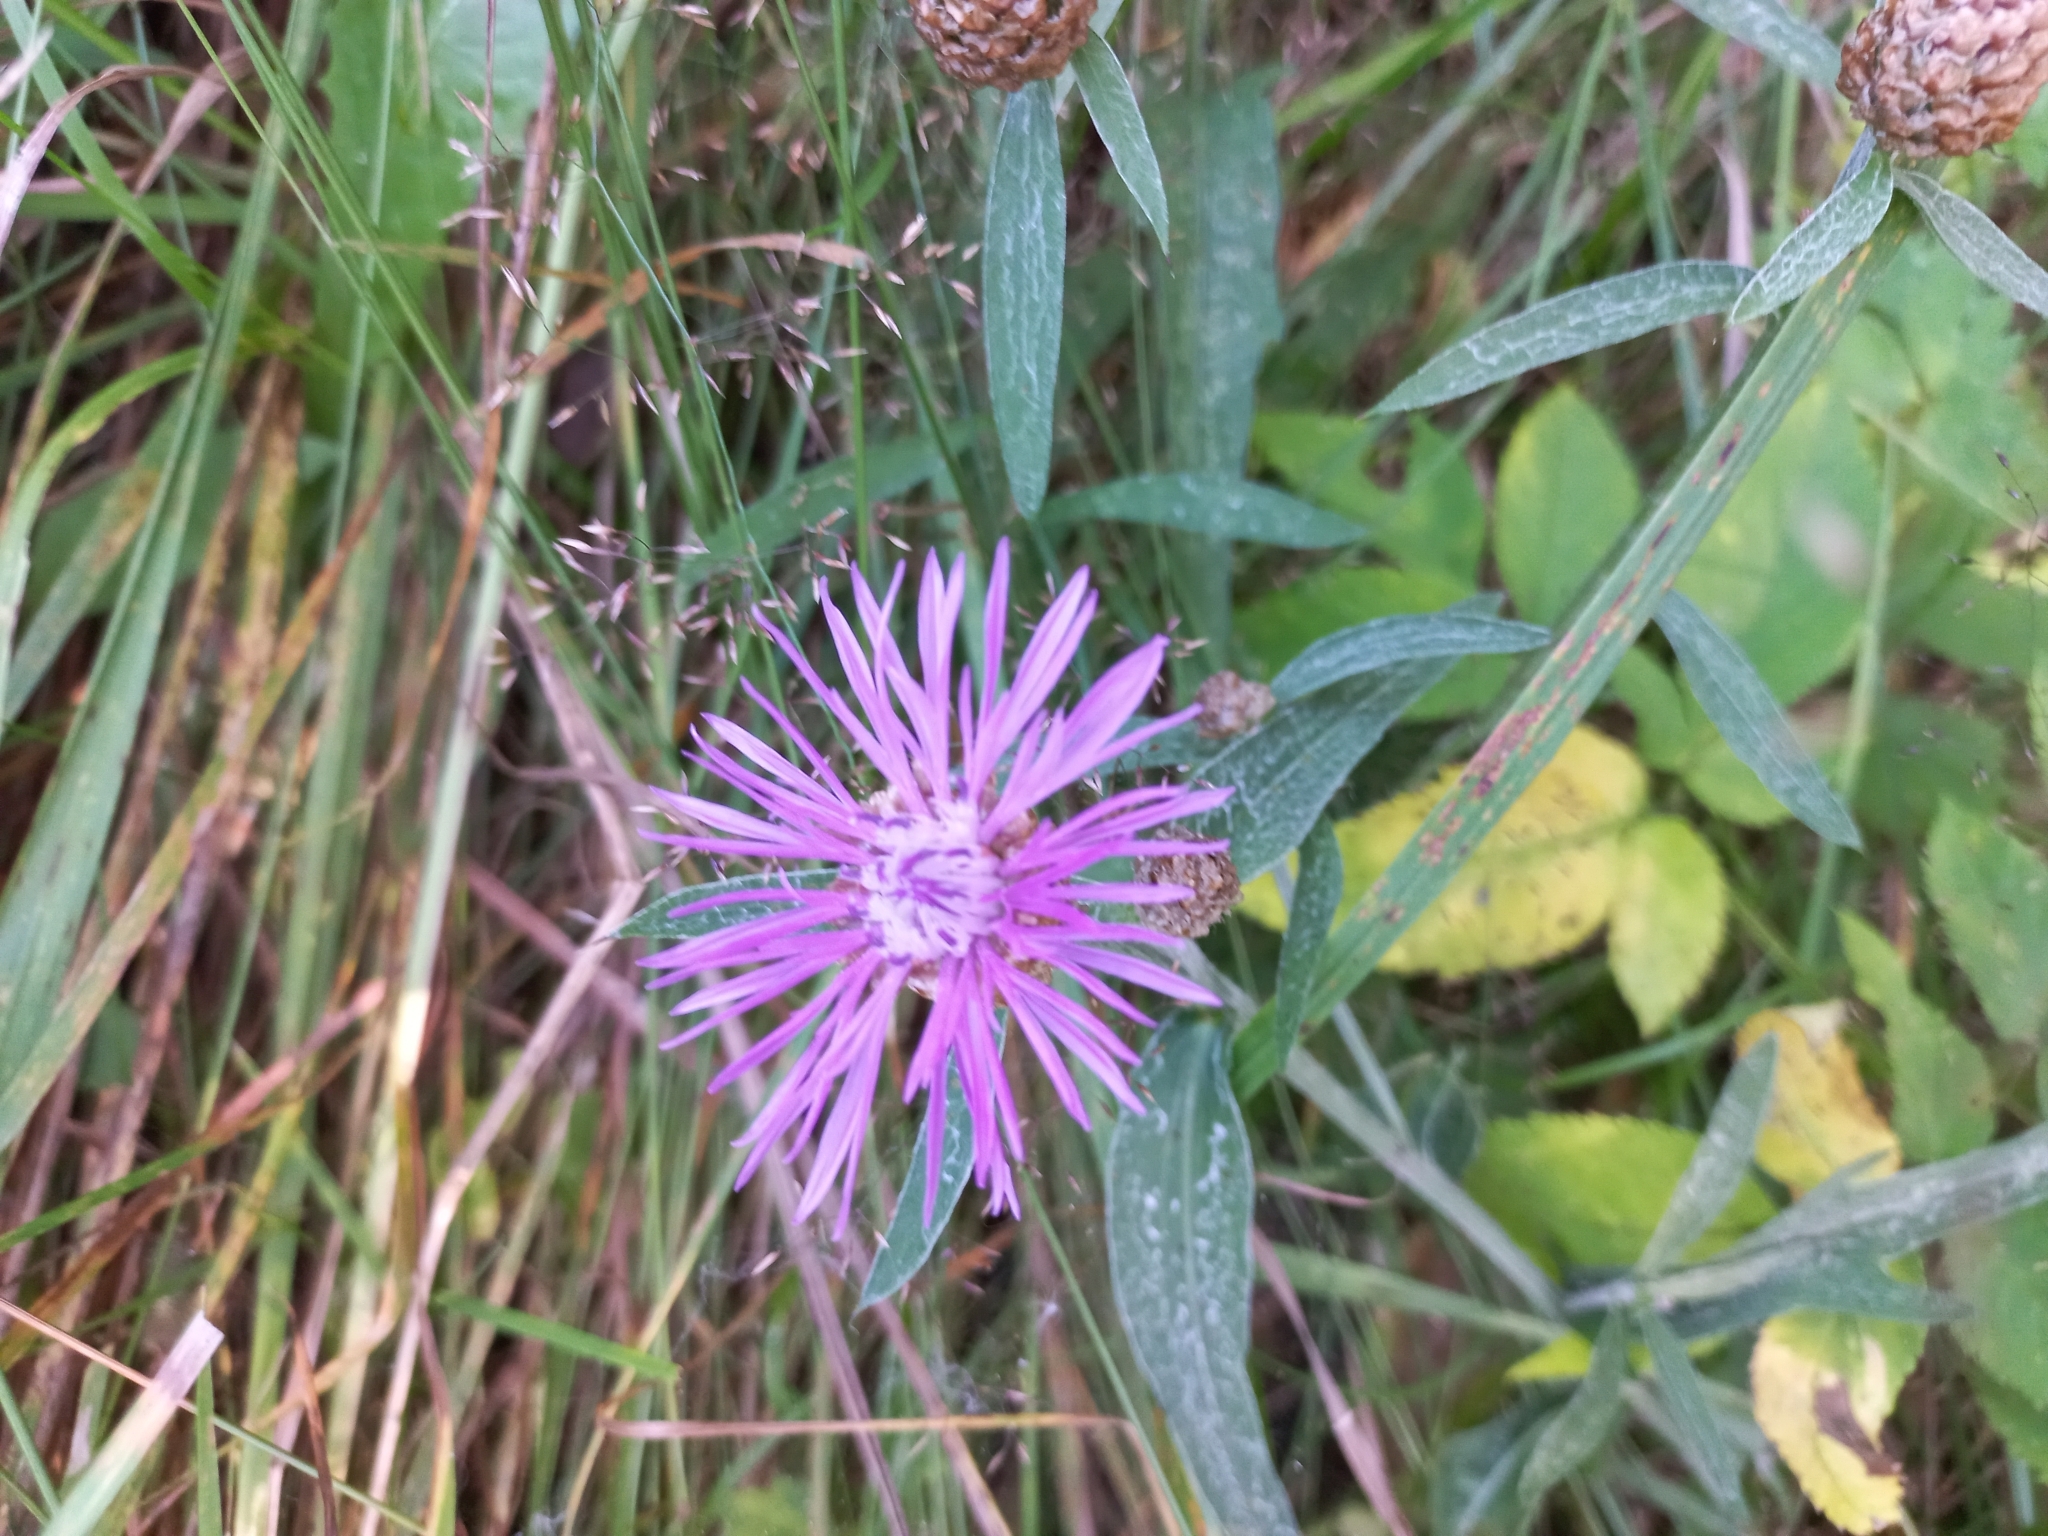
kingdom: Plantae
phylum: Tracheophyta
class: Magnoliopsida
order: Asterales
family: Asteraceae
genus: Centaurea
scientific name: Centaurea jacea
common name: Brown knapweed
